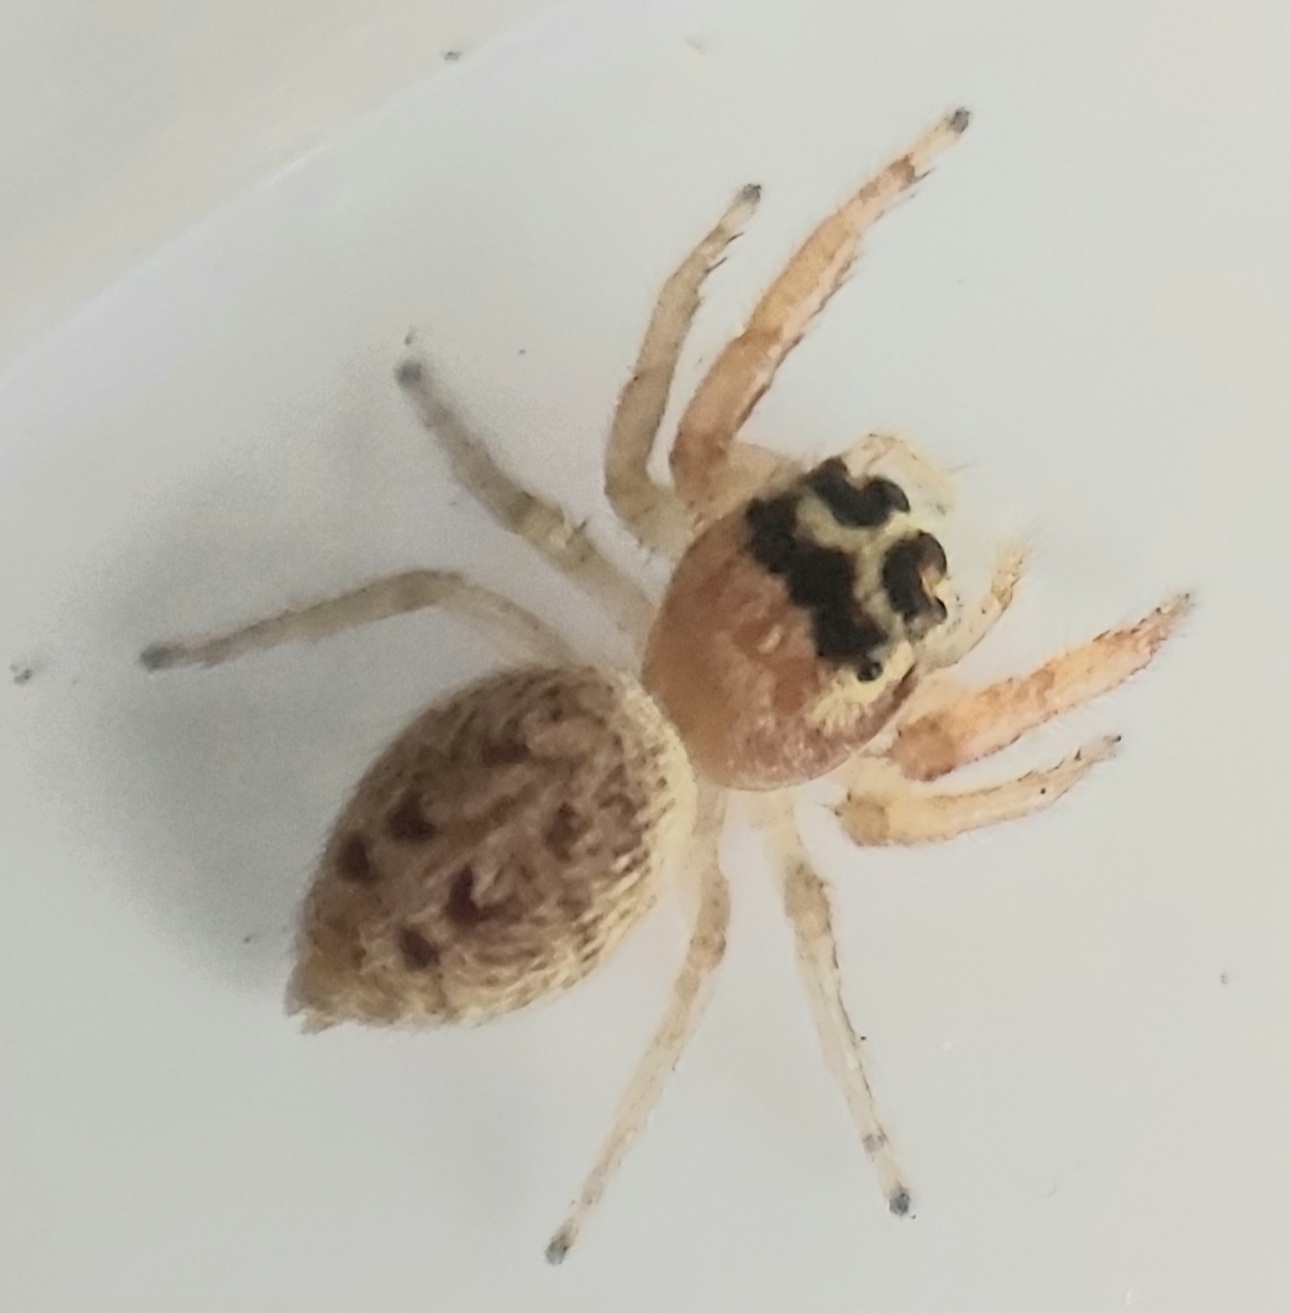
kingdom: Animalia
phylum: Arthropoda
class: Arachnida
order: Araneae
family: Salticidae
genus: Opisthoncus
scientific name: Opisthoncus nigrofemoratus
